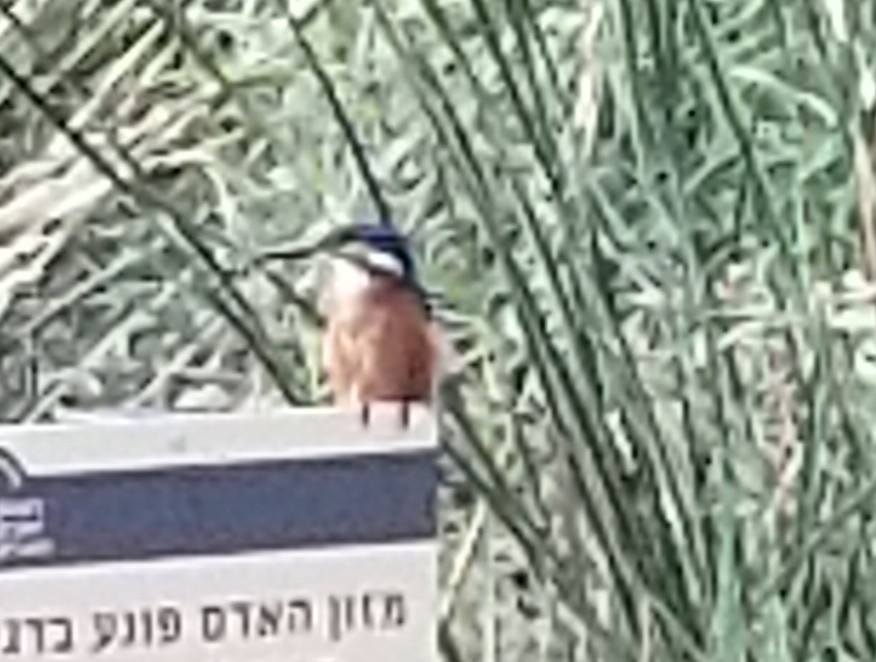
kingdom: Animalia
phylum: Chordata
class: Aves
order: Coraciiformes
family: Alcedinidae
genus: Alcedo
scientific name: Alcedo atthis
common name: Common kingfisher
